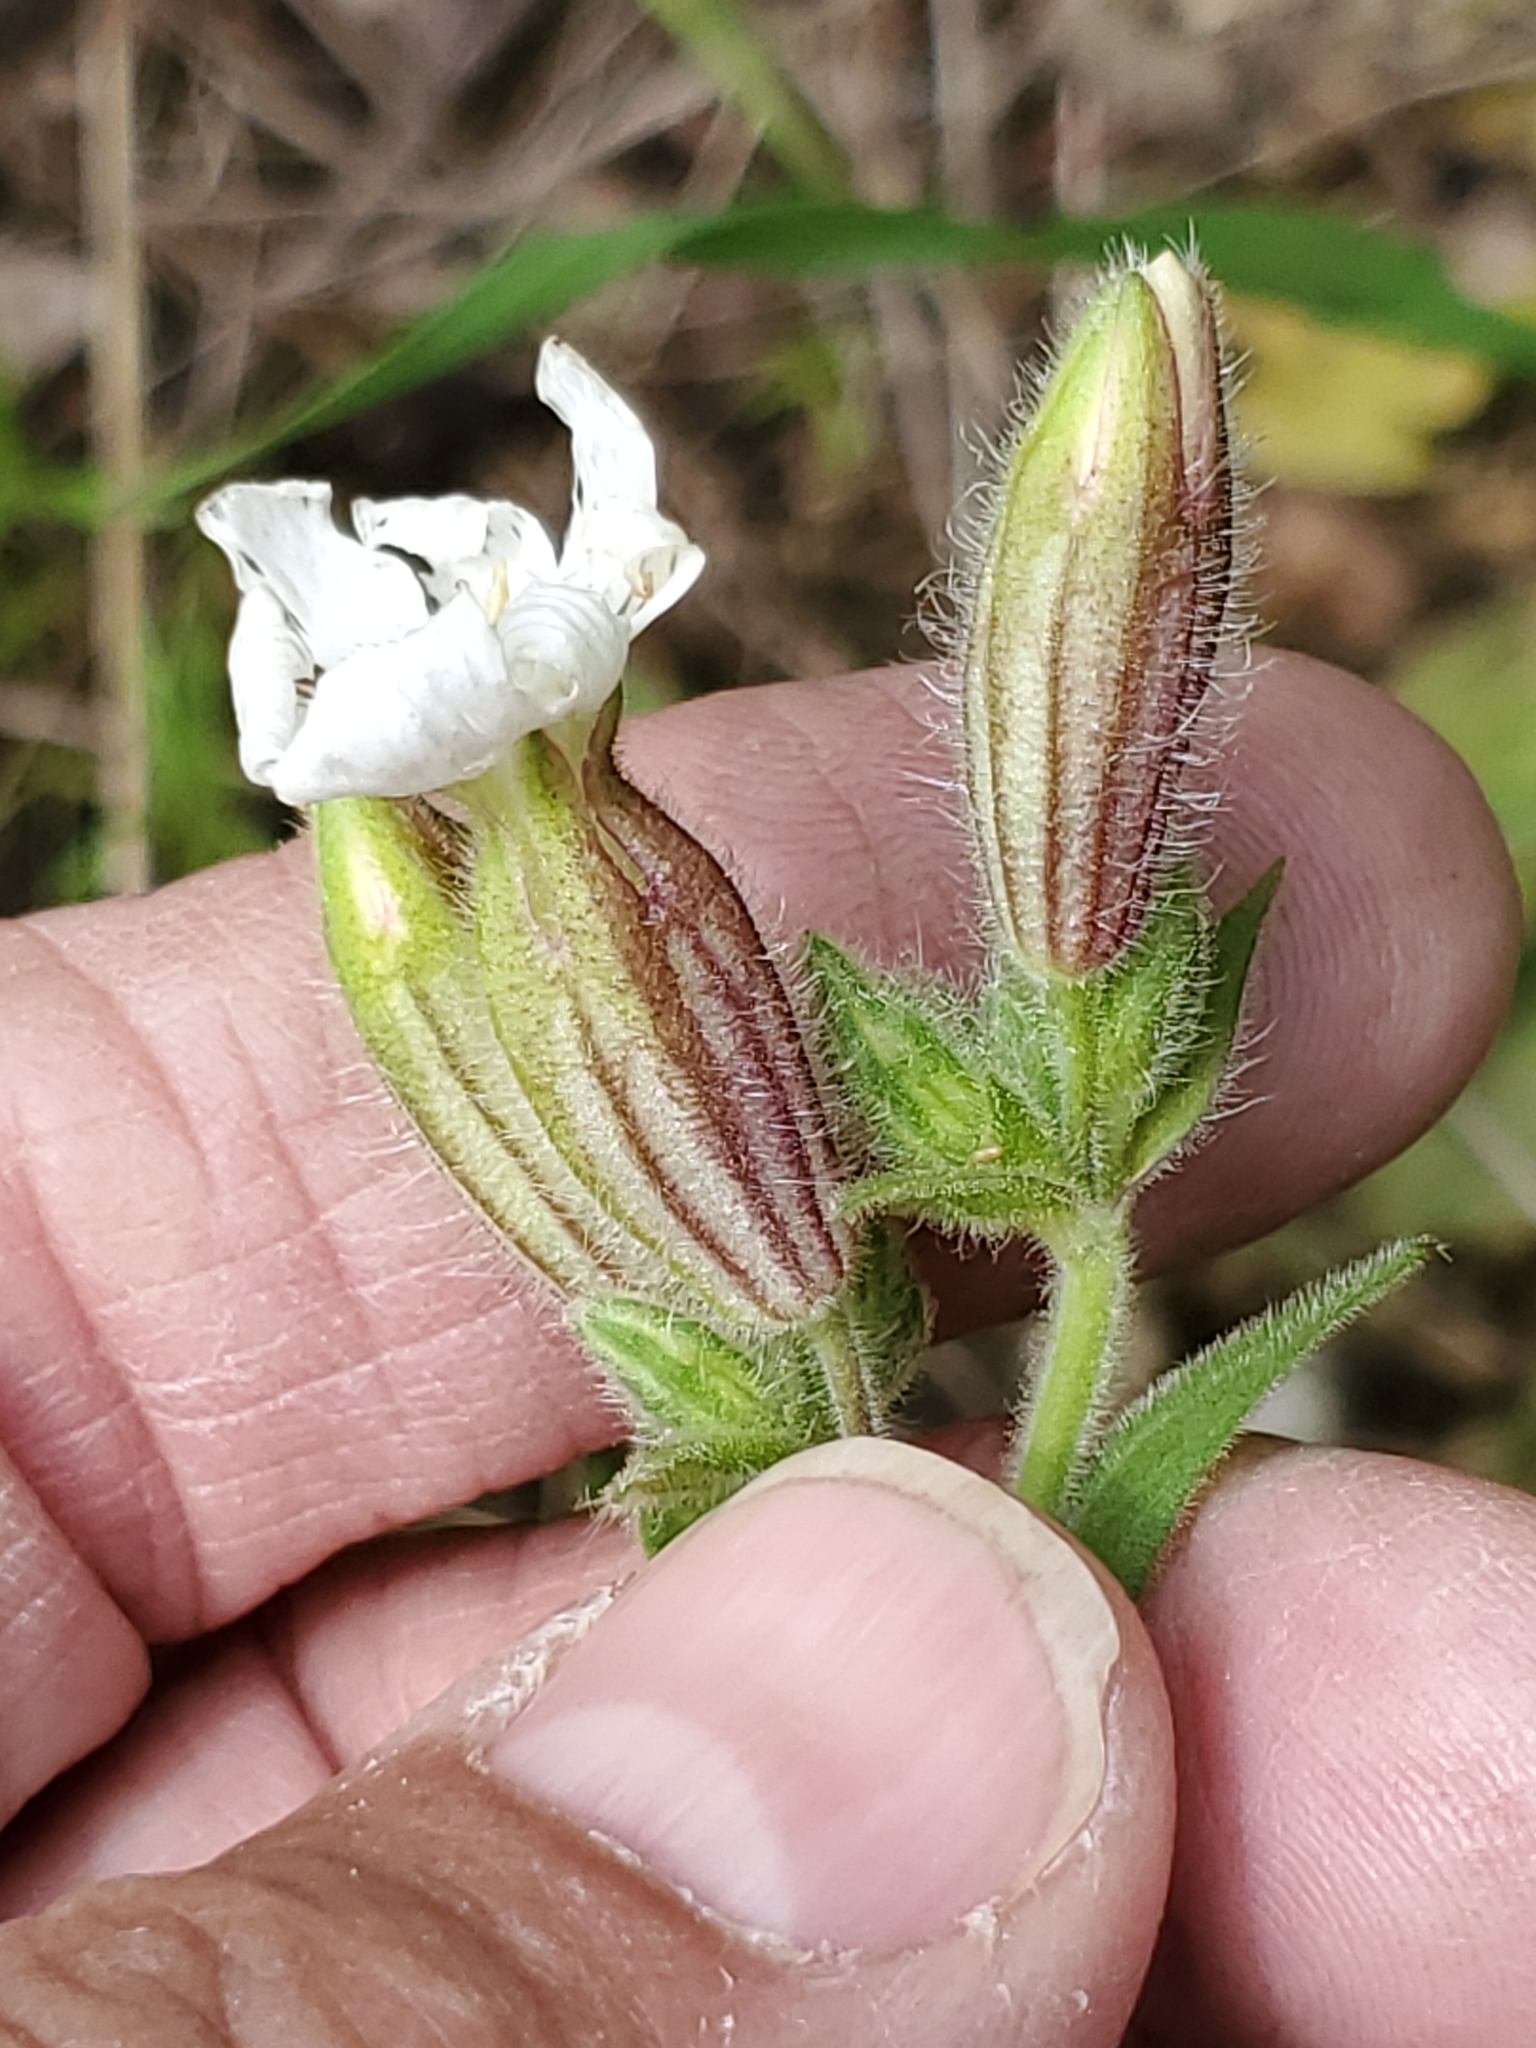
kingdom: Plantae
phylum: Tracheophyta
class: Magnoliopsida
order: Caryophyllales
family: Caryophyllaceae
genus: Silene
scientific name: Silene latifolia
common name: White campion
